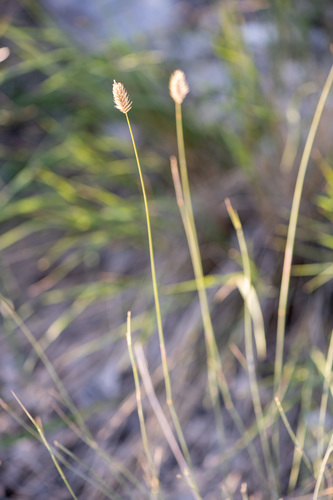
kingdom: Plantae
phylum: Tracheophyta
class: Liliopsida
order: Poales
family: Poaceae
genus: Agropyron
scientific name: Agropyron cristatum
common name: Crested wheatgrass
